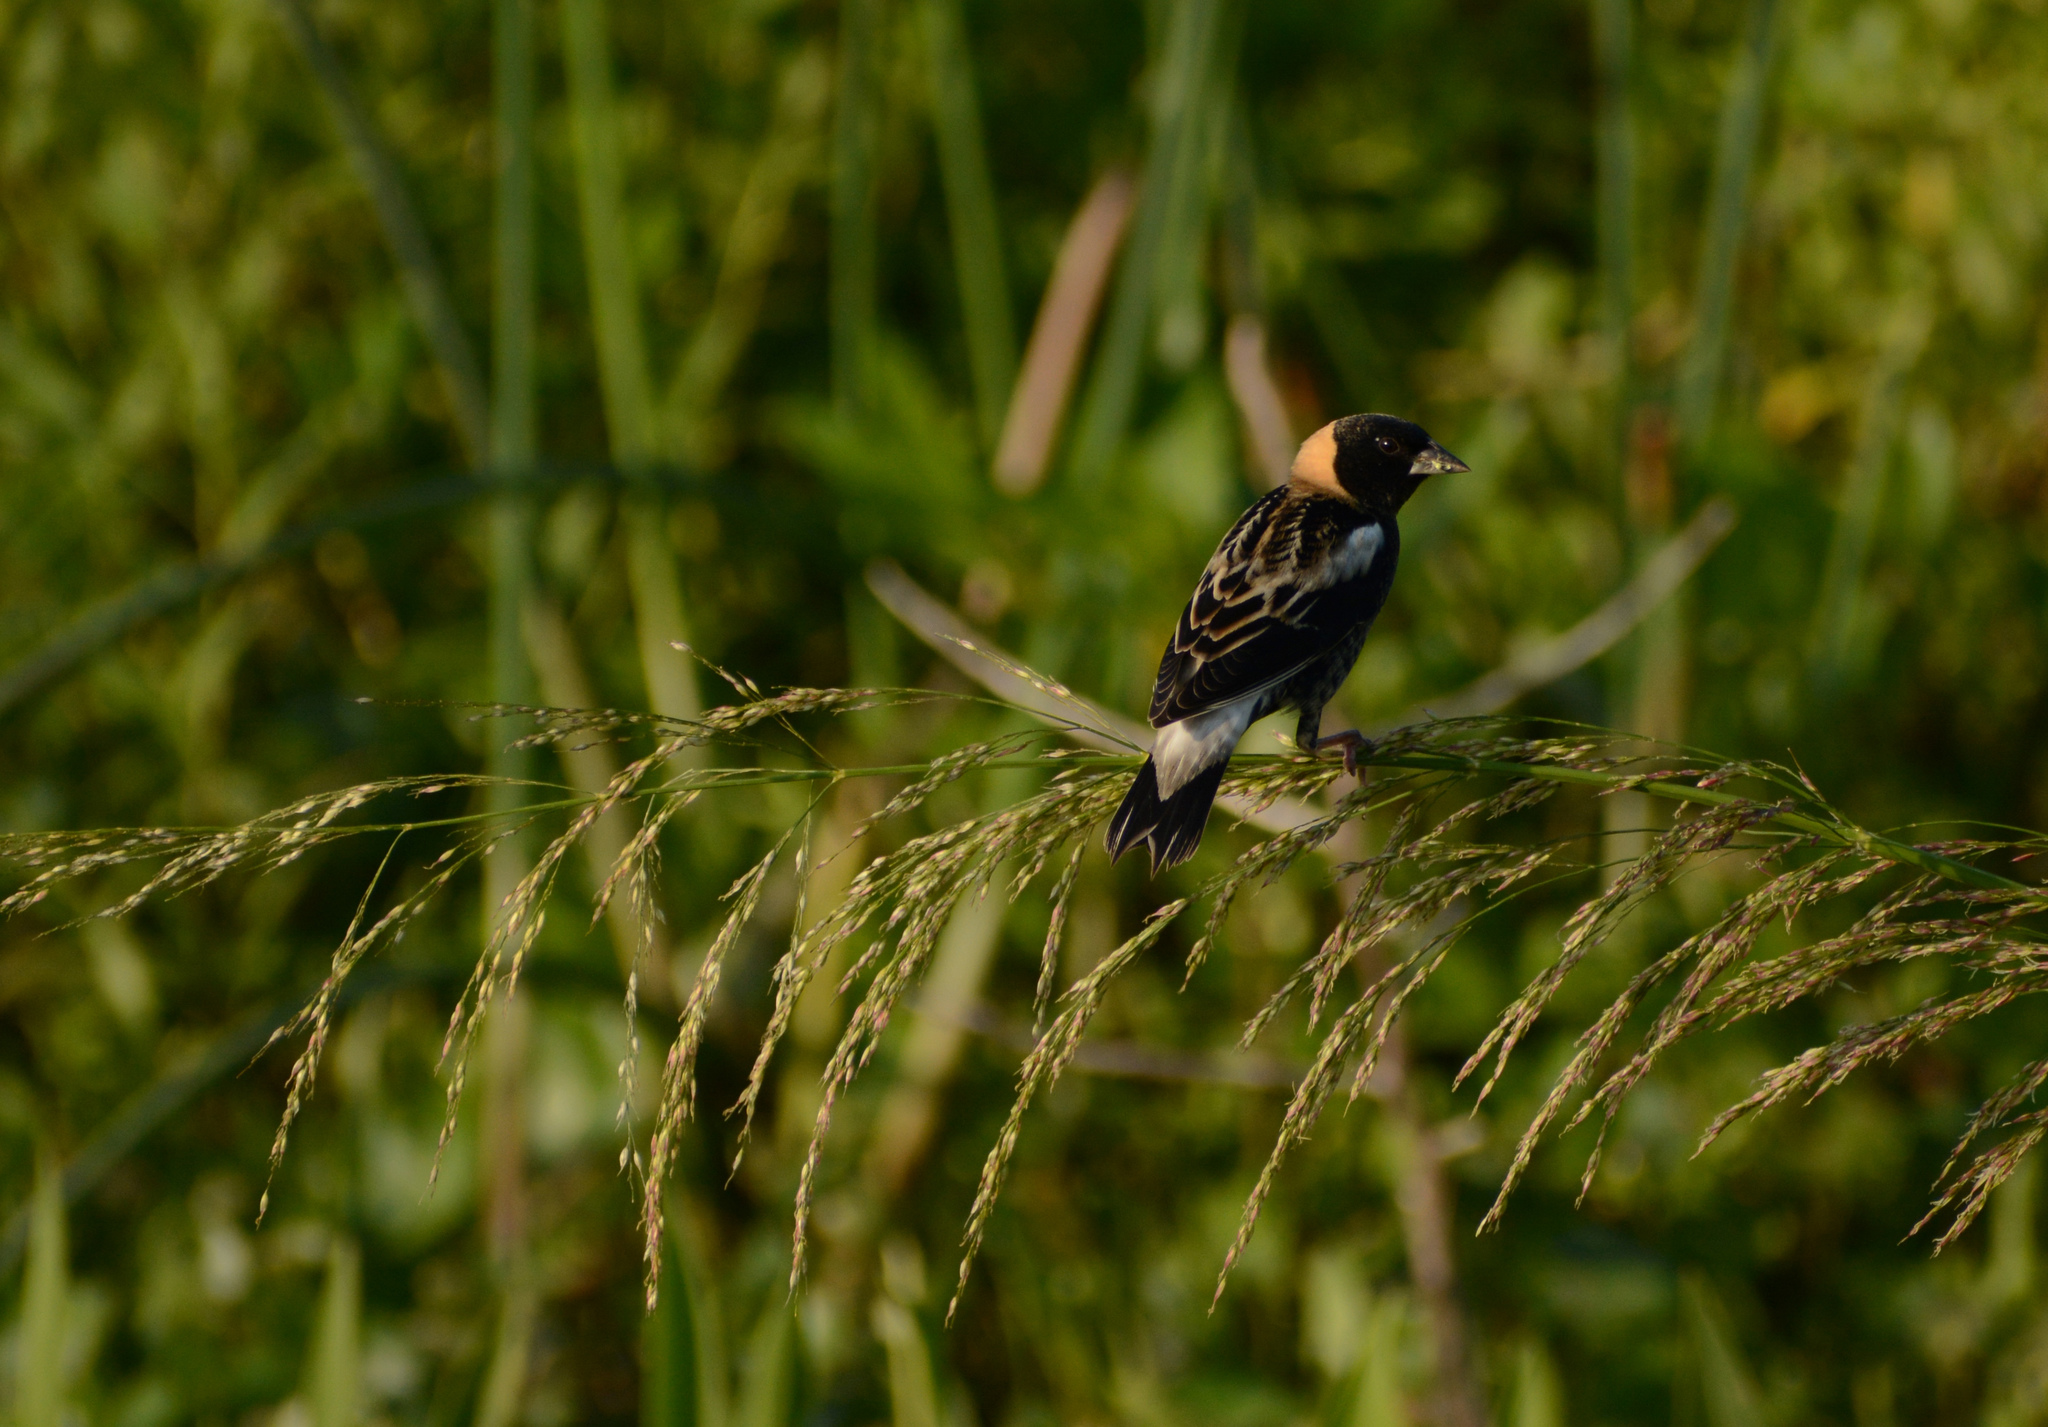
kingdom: Animalia
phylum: Chordata
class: Aves
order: Passeriformes
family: Icteridae
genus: Dolichonyx
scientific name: Dolichonyx oryzivorus
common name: Bobolink
